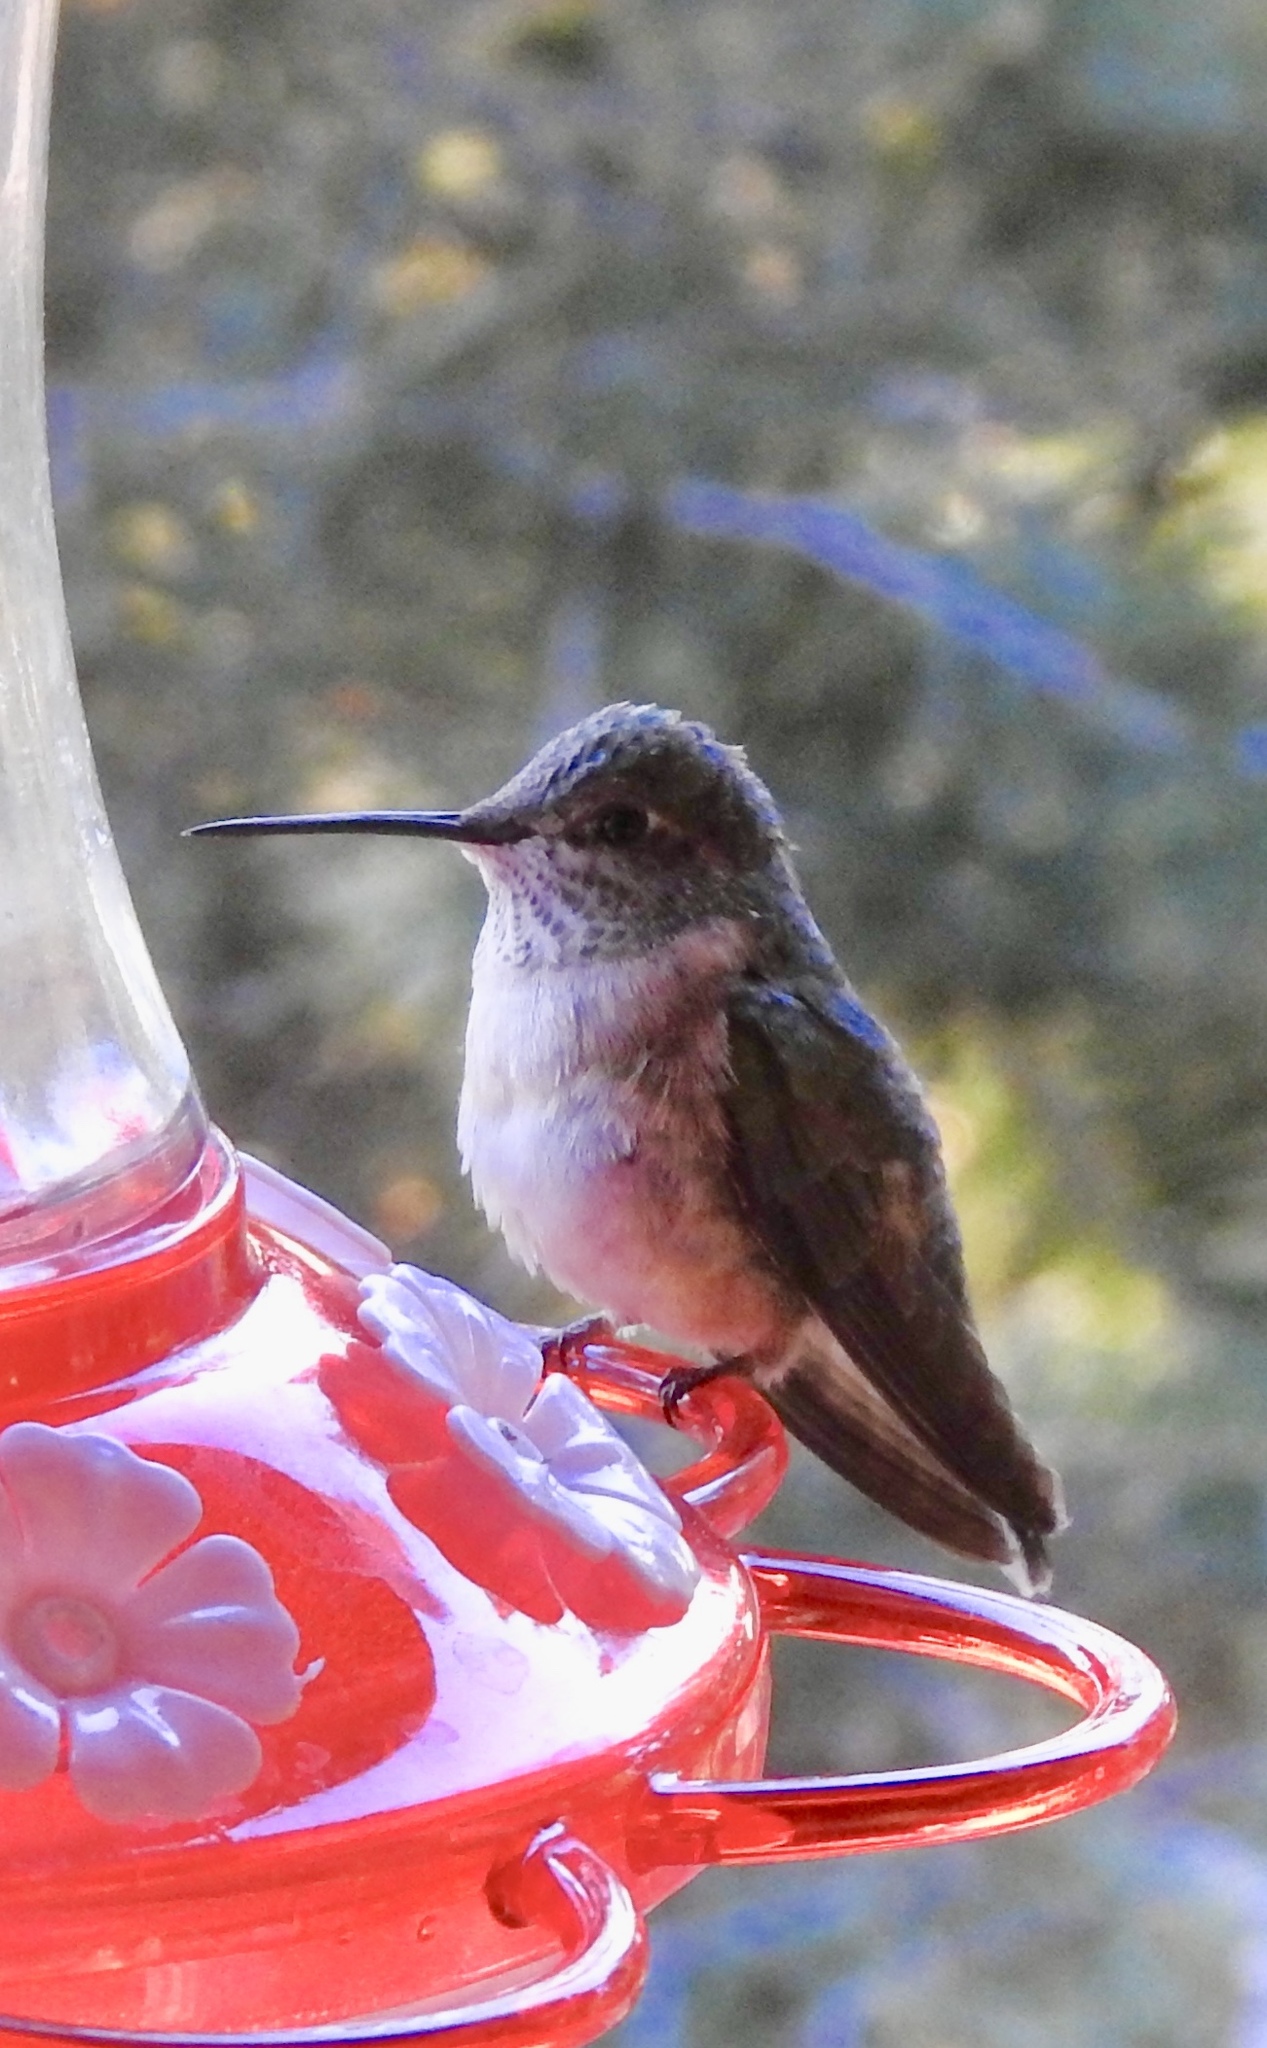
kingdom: Animalia
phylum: Chordata
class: Aves
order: Apodiformes
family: Trochilidae
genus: Selasphorus
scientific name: Selasphorus platycercus
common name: Broad-tailed hummingbird
